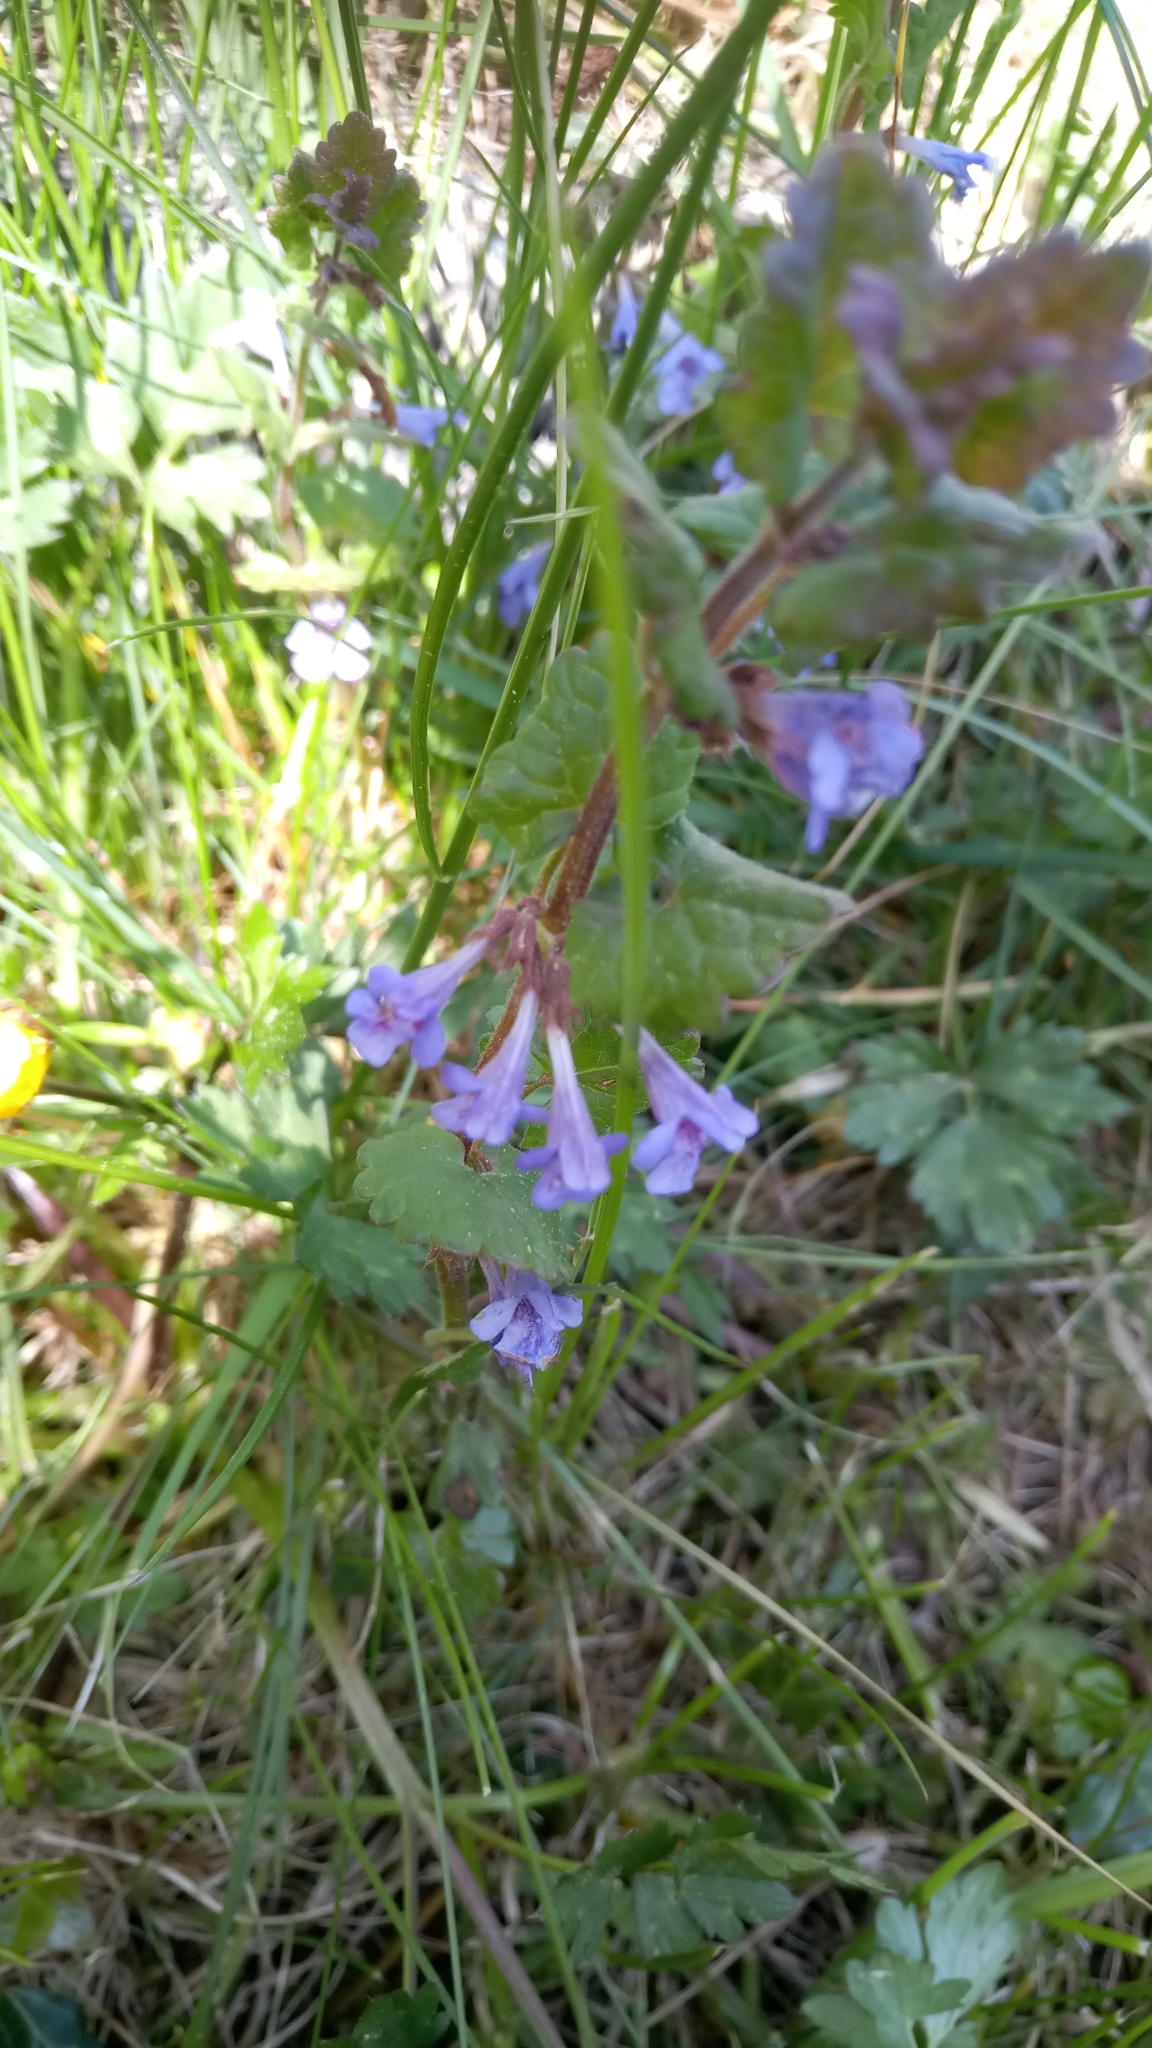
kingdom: Plantae
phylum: Tracheophyta
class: Magnoliopsida
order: Lamiales
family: Lamiaceae
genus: Glechoma
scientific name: Glechoma hederacea
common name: Ground ivy
